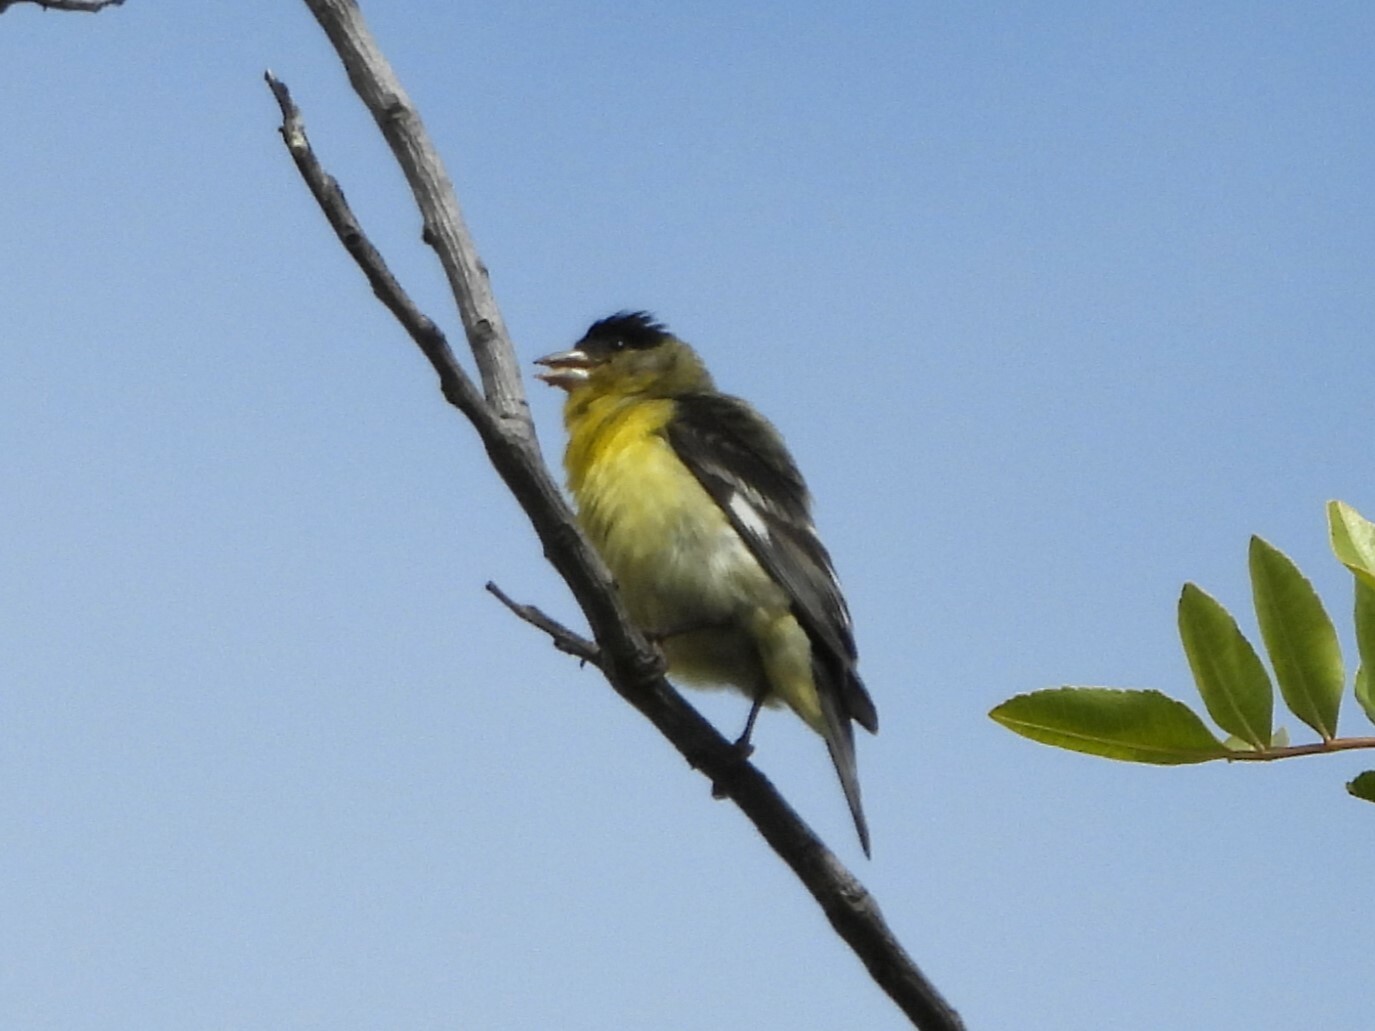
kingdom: Animalia
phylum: Chordata
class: Aves
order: Passeriformes
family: Fringillidae
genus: Spinus
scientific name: Spinus psaltria
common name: Lesser goldfinch
